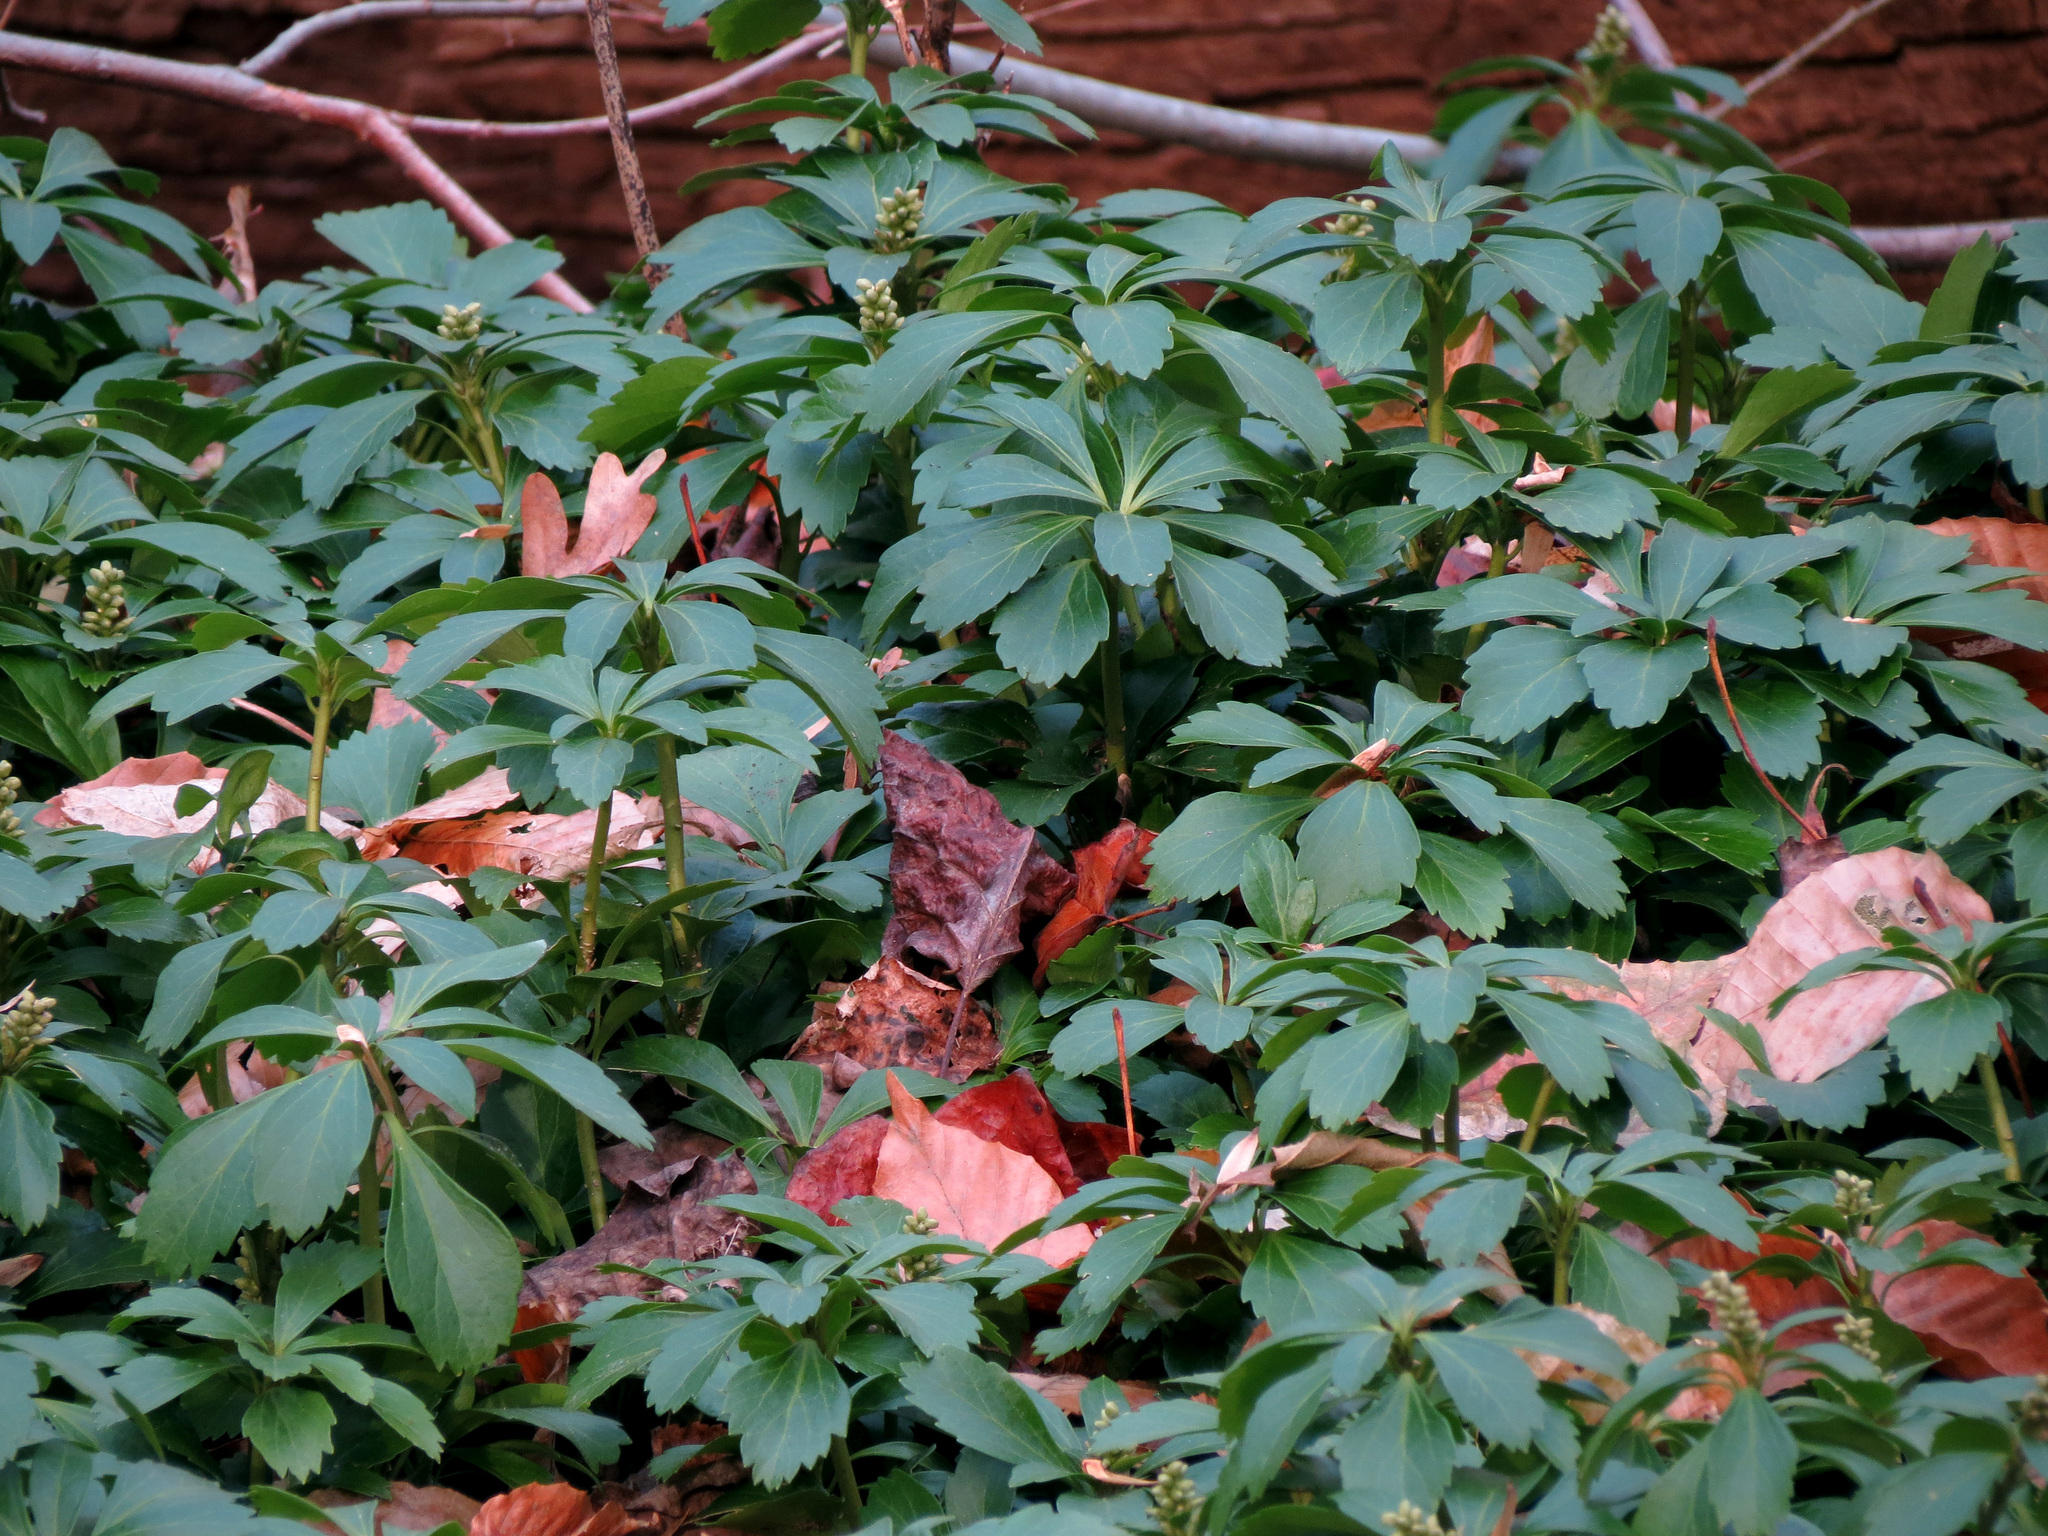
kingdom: Plantae
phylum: Tracheophyta
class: Magnoliopsida
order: Buxales
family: Buxaceae
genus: Pachysandra
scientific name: Pachysandra terminalis
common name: Japanese pachysandra
